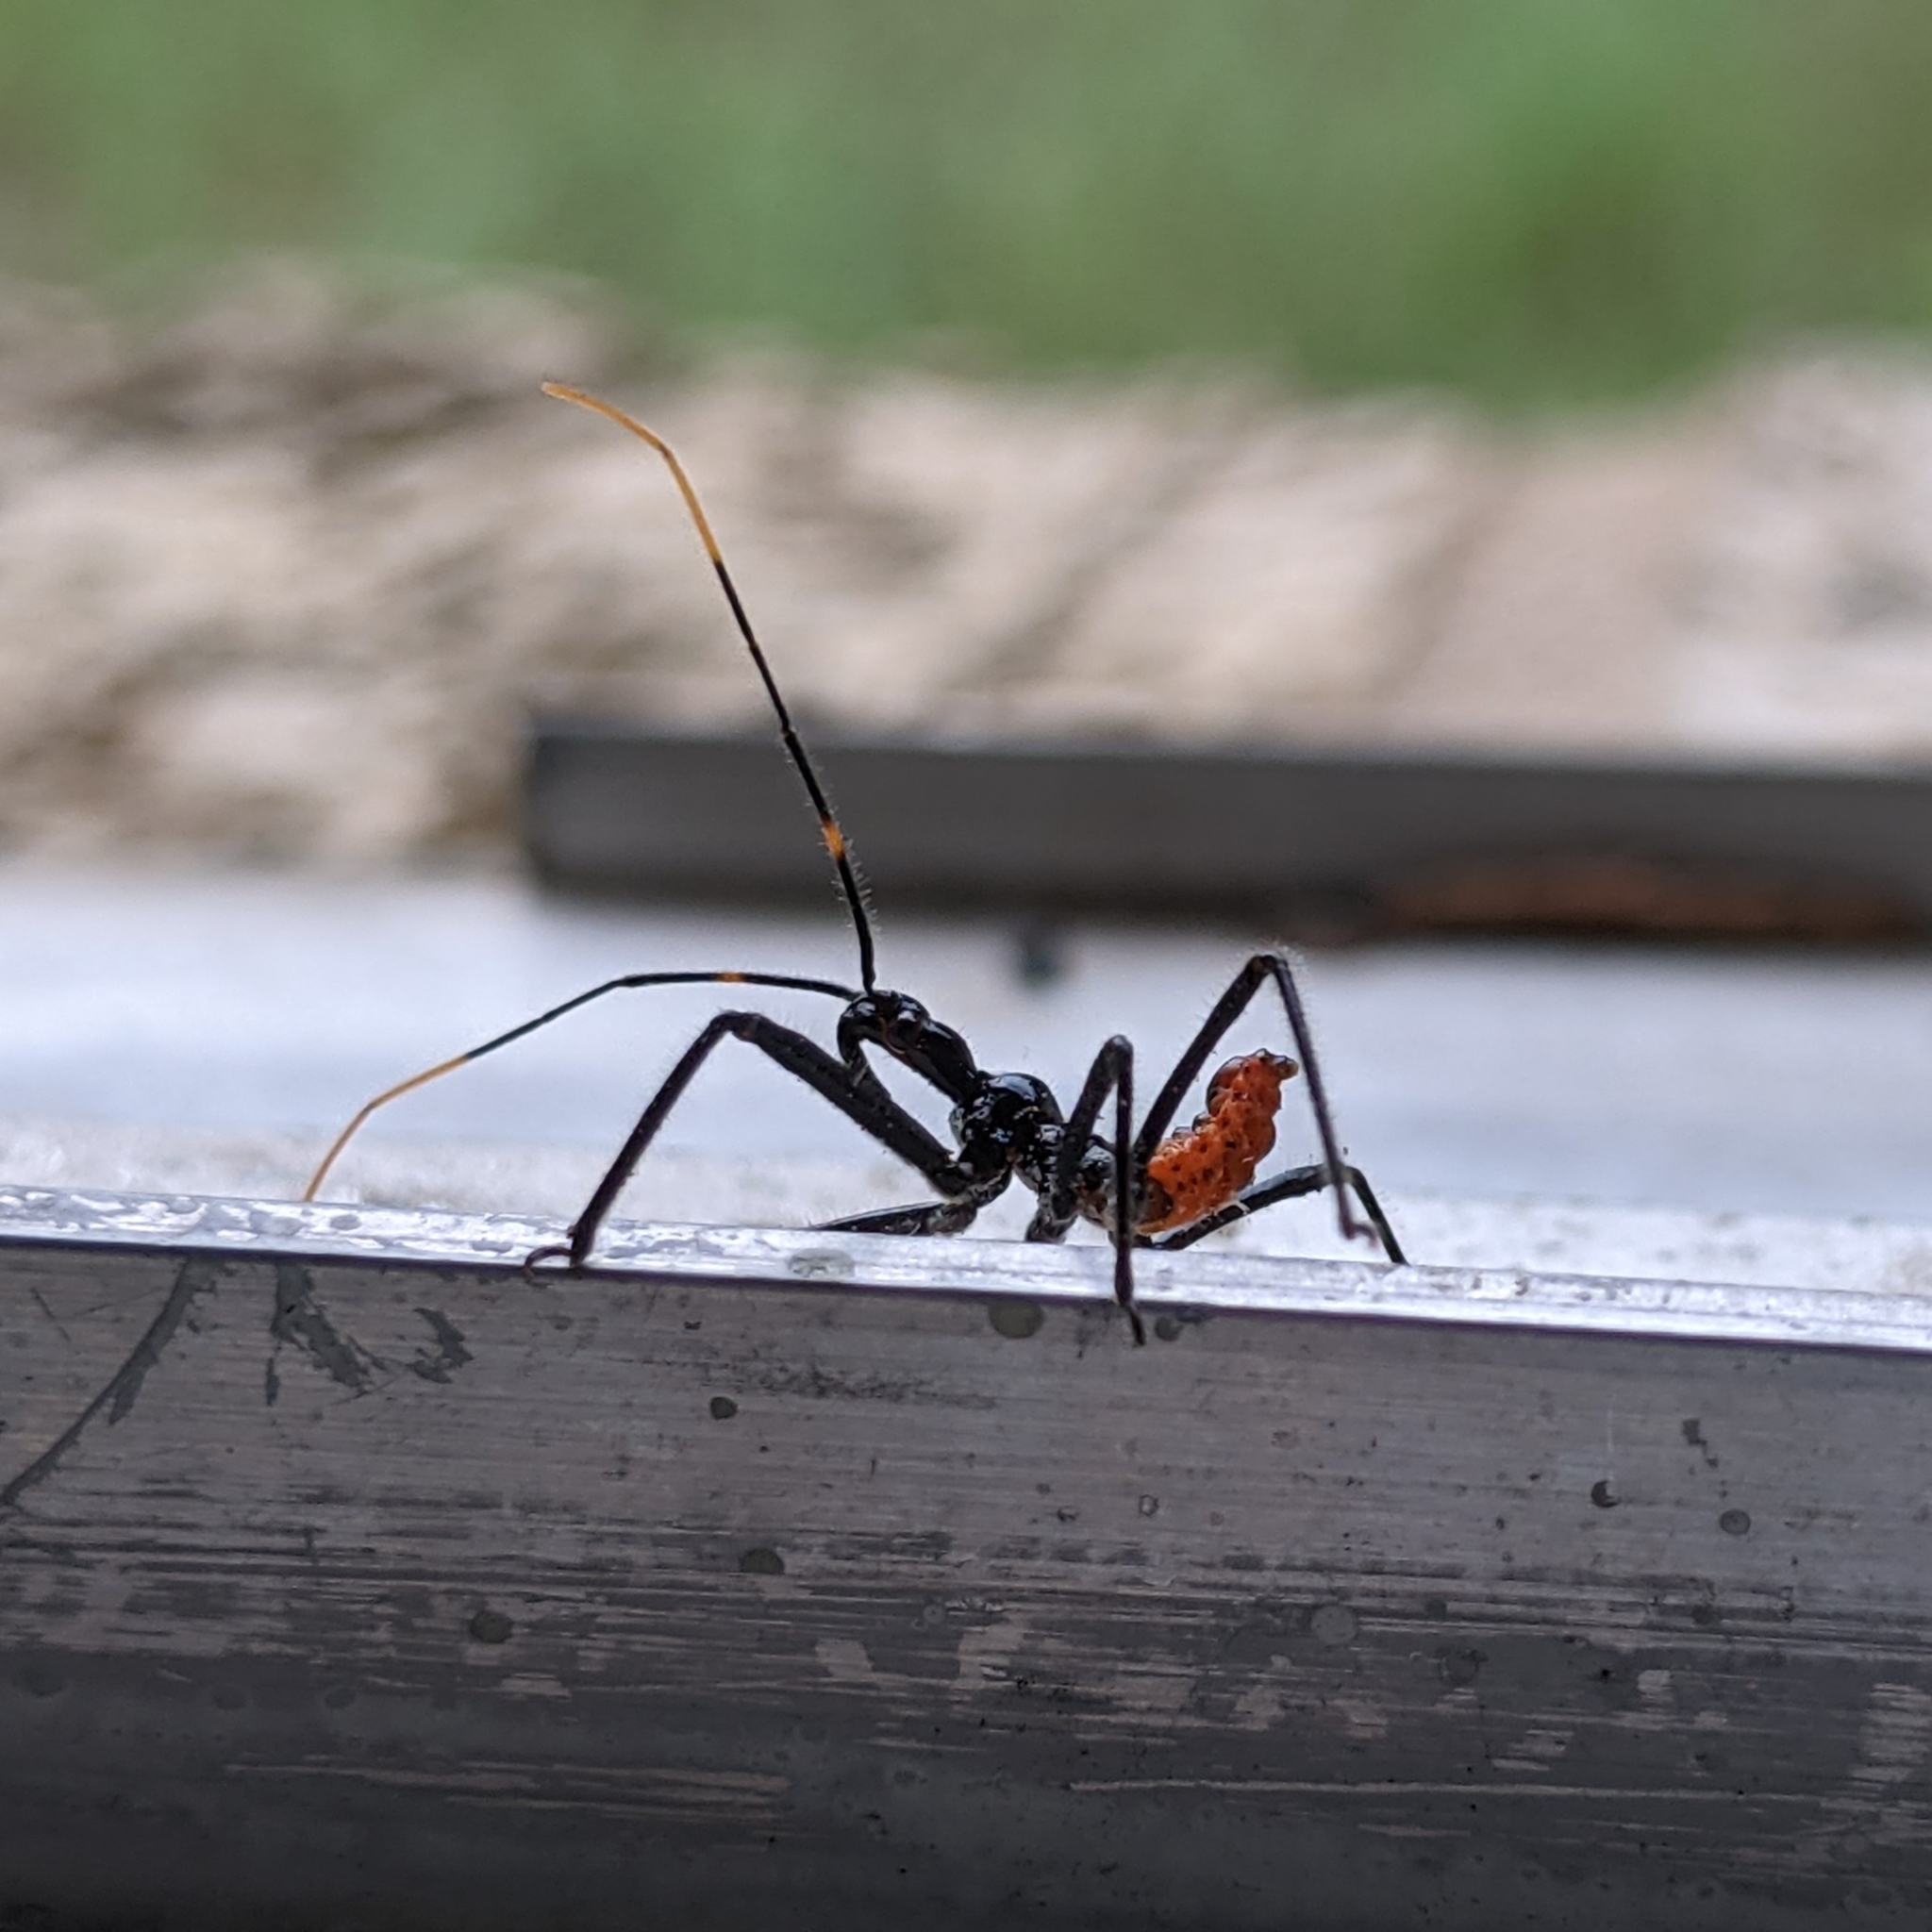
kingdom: Animalia
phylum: Arthropoda
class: Insecta
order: Hemiptera
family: Reduviidae
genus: Arilus
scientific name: Arilus cristatus
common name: North american wheel bug
